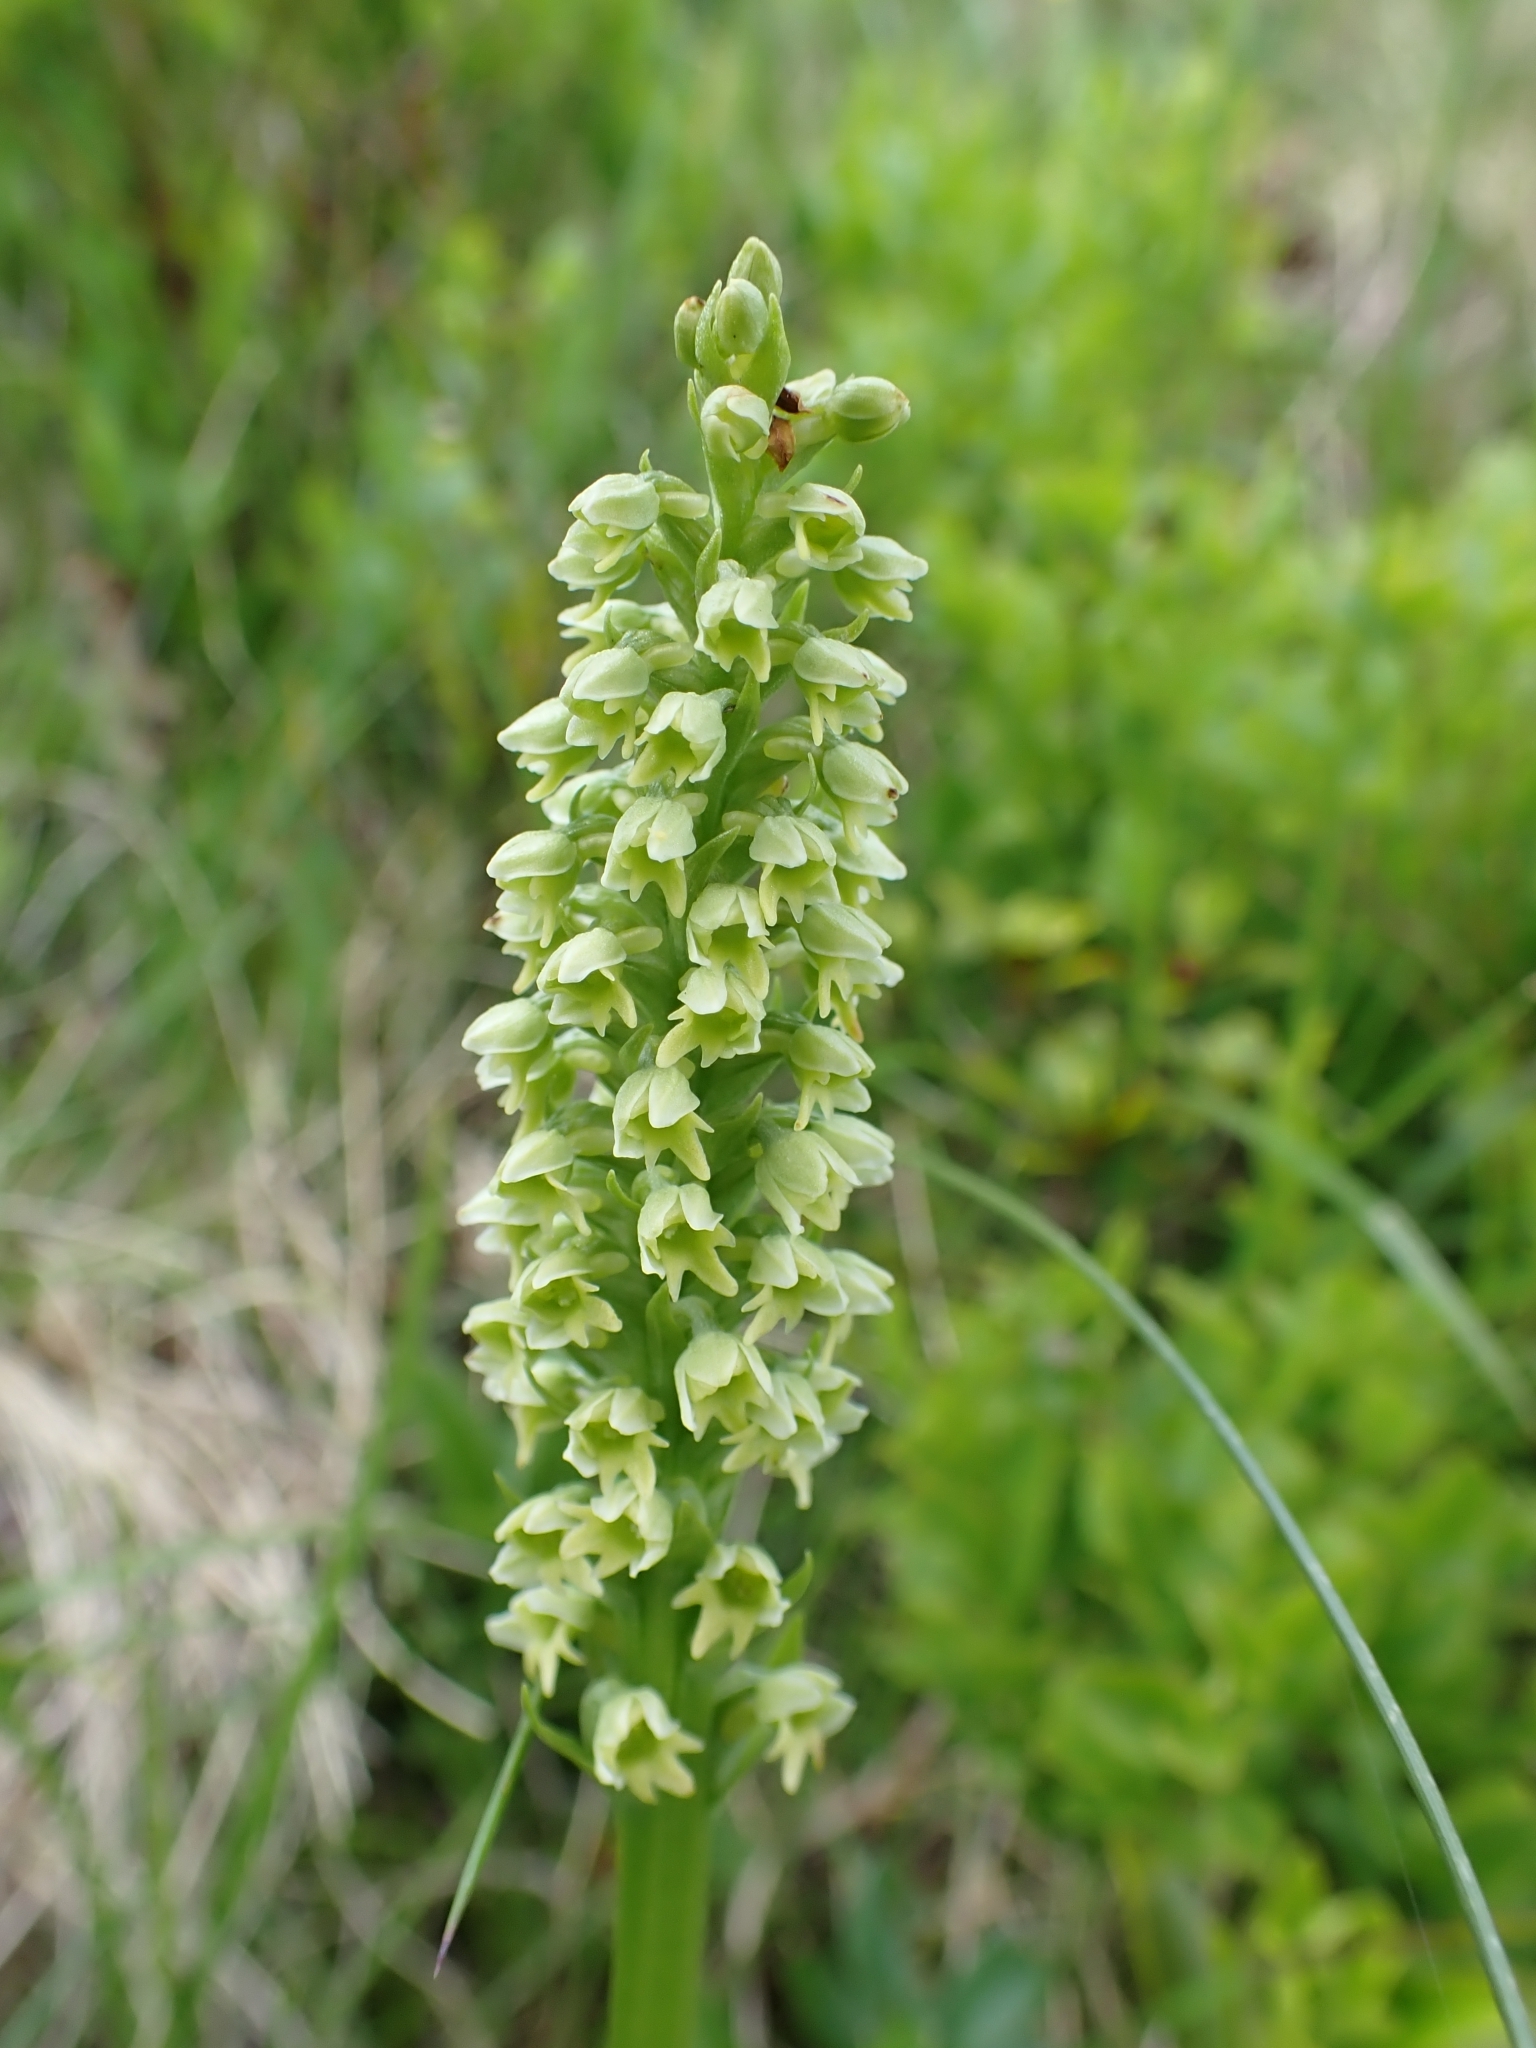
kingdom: Plantae
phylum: Tracheophyta
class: Liliopsida
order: Asparagales
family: Orchidaceae
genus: Pseudorchis
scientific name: Pseudorchis albida
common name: Small-white orchid
